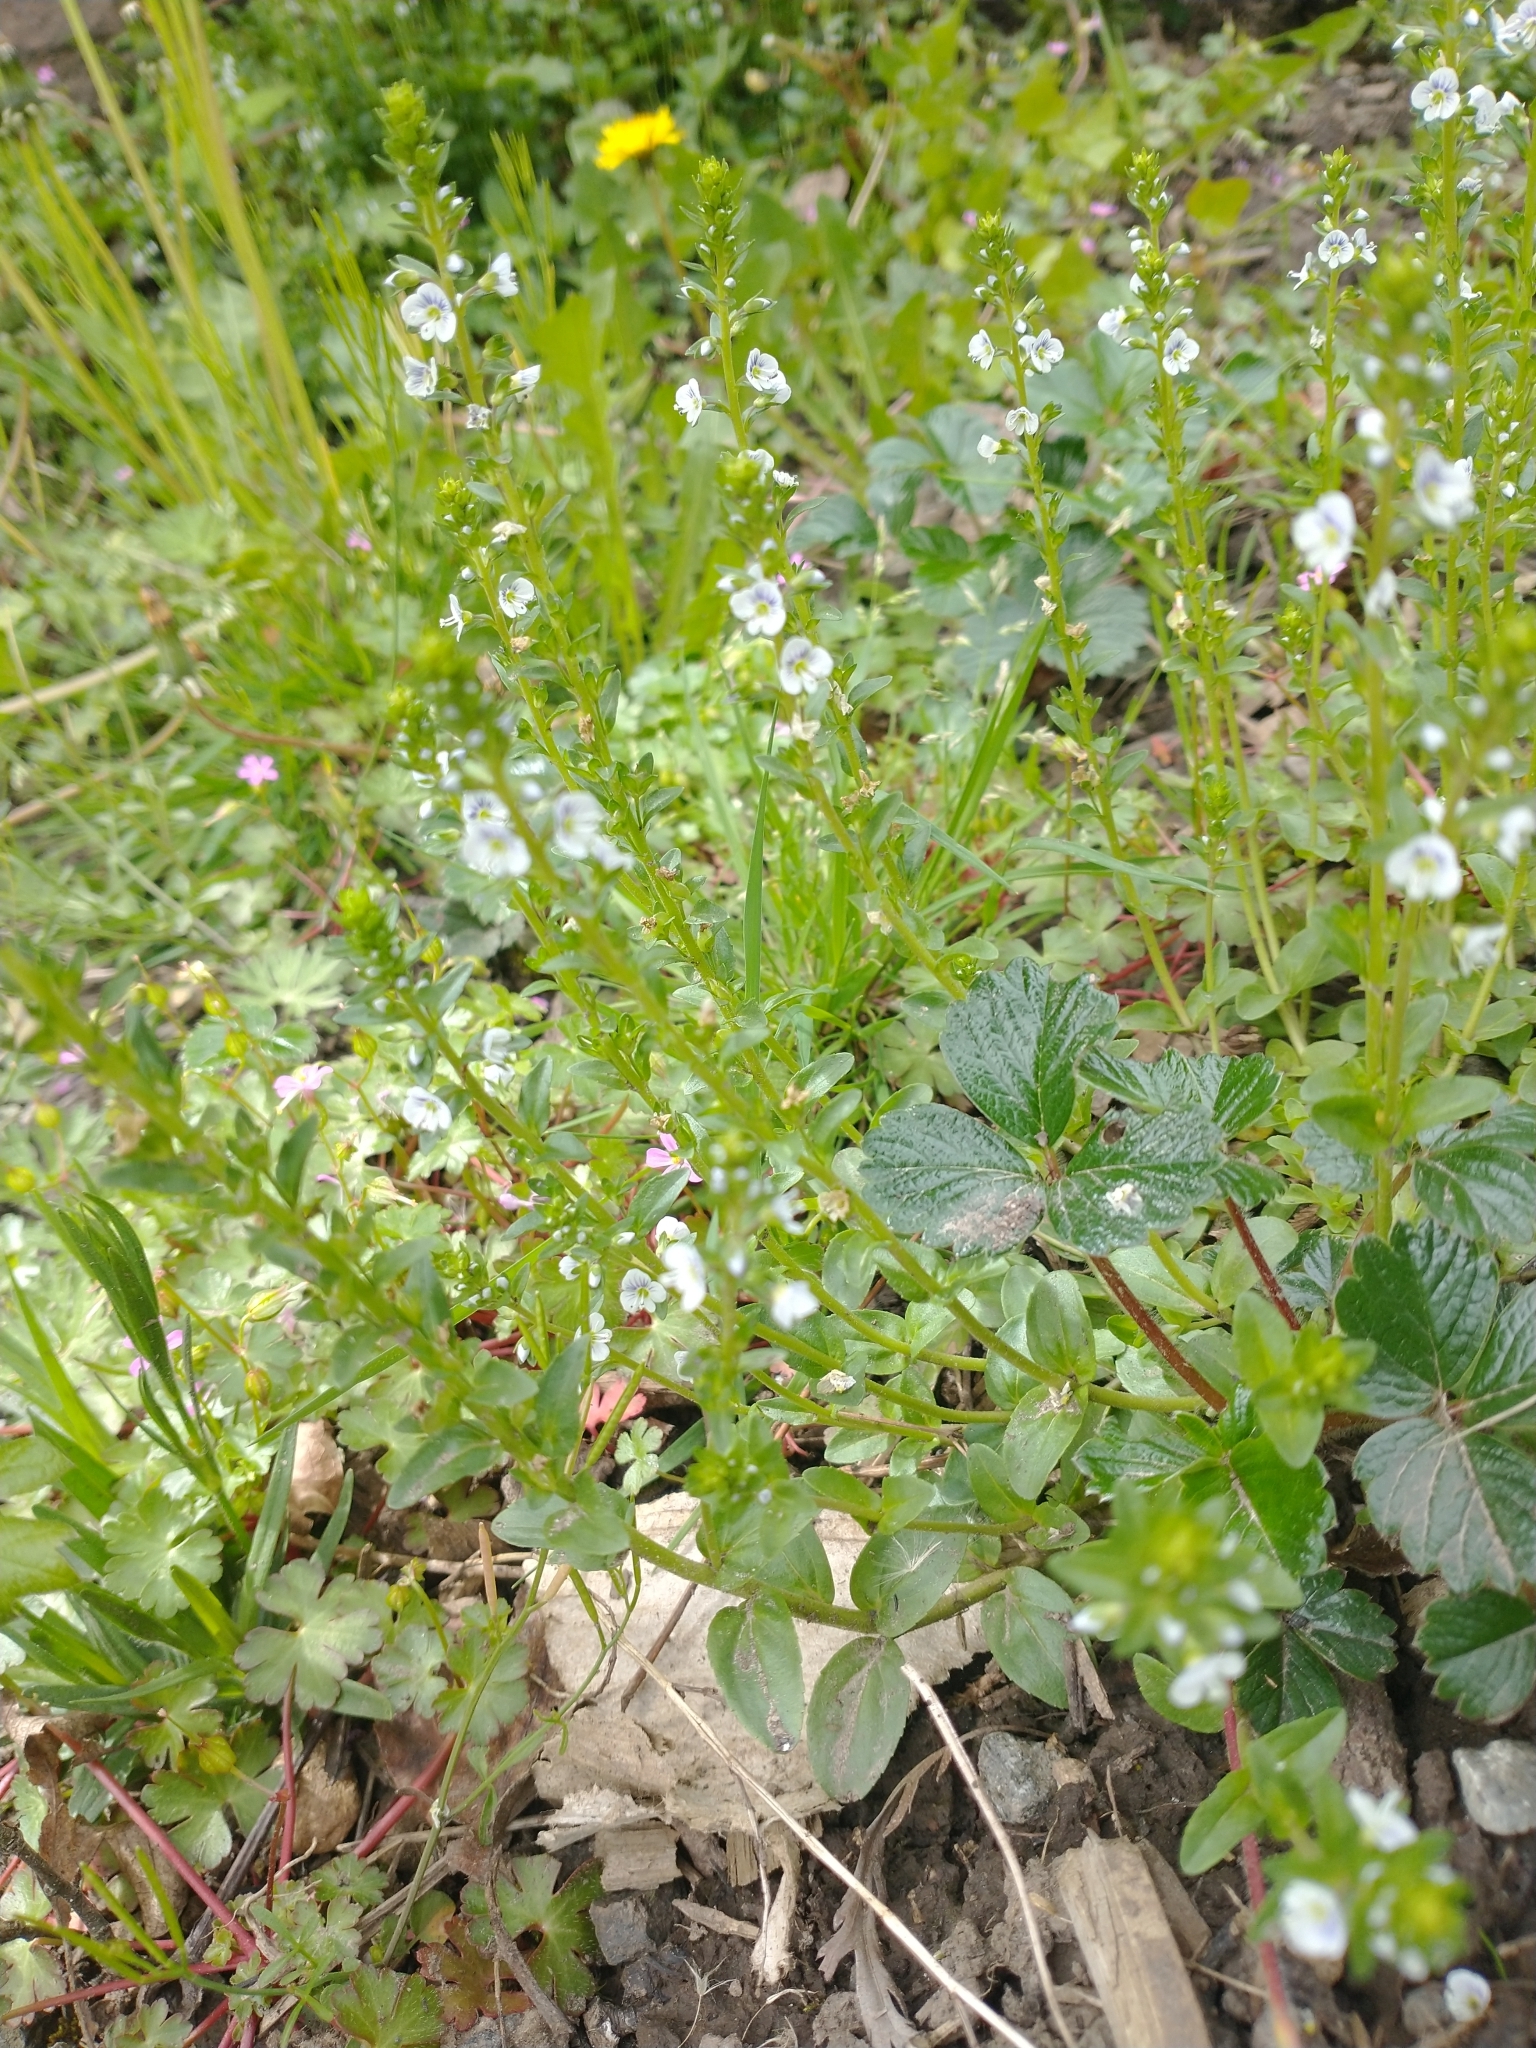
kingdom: Plantae
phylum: Tracheophyta
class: Magnoliopsida
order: Lamiales
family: Plantaginaceae
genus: Veronica
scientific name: Veronica serpyllifolia
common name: Thyme-leaved speedwell
